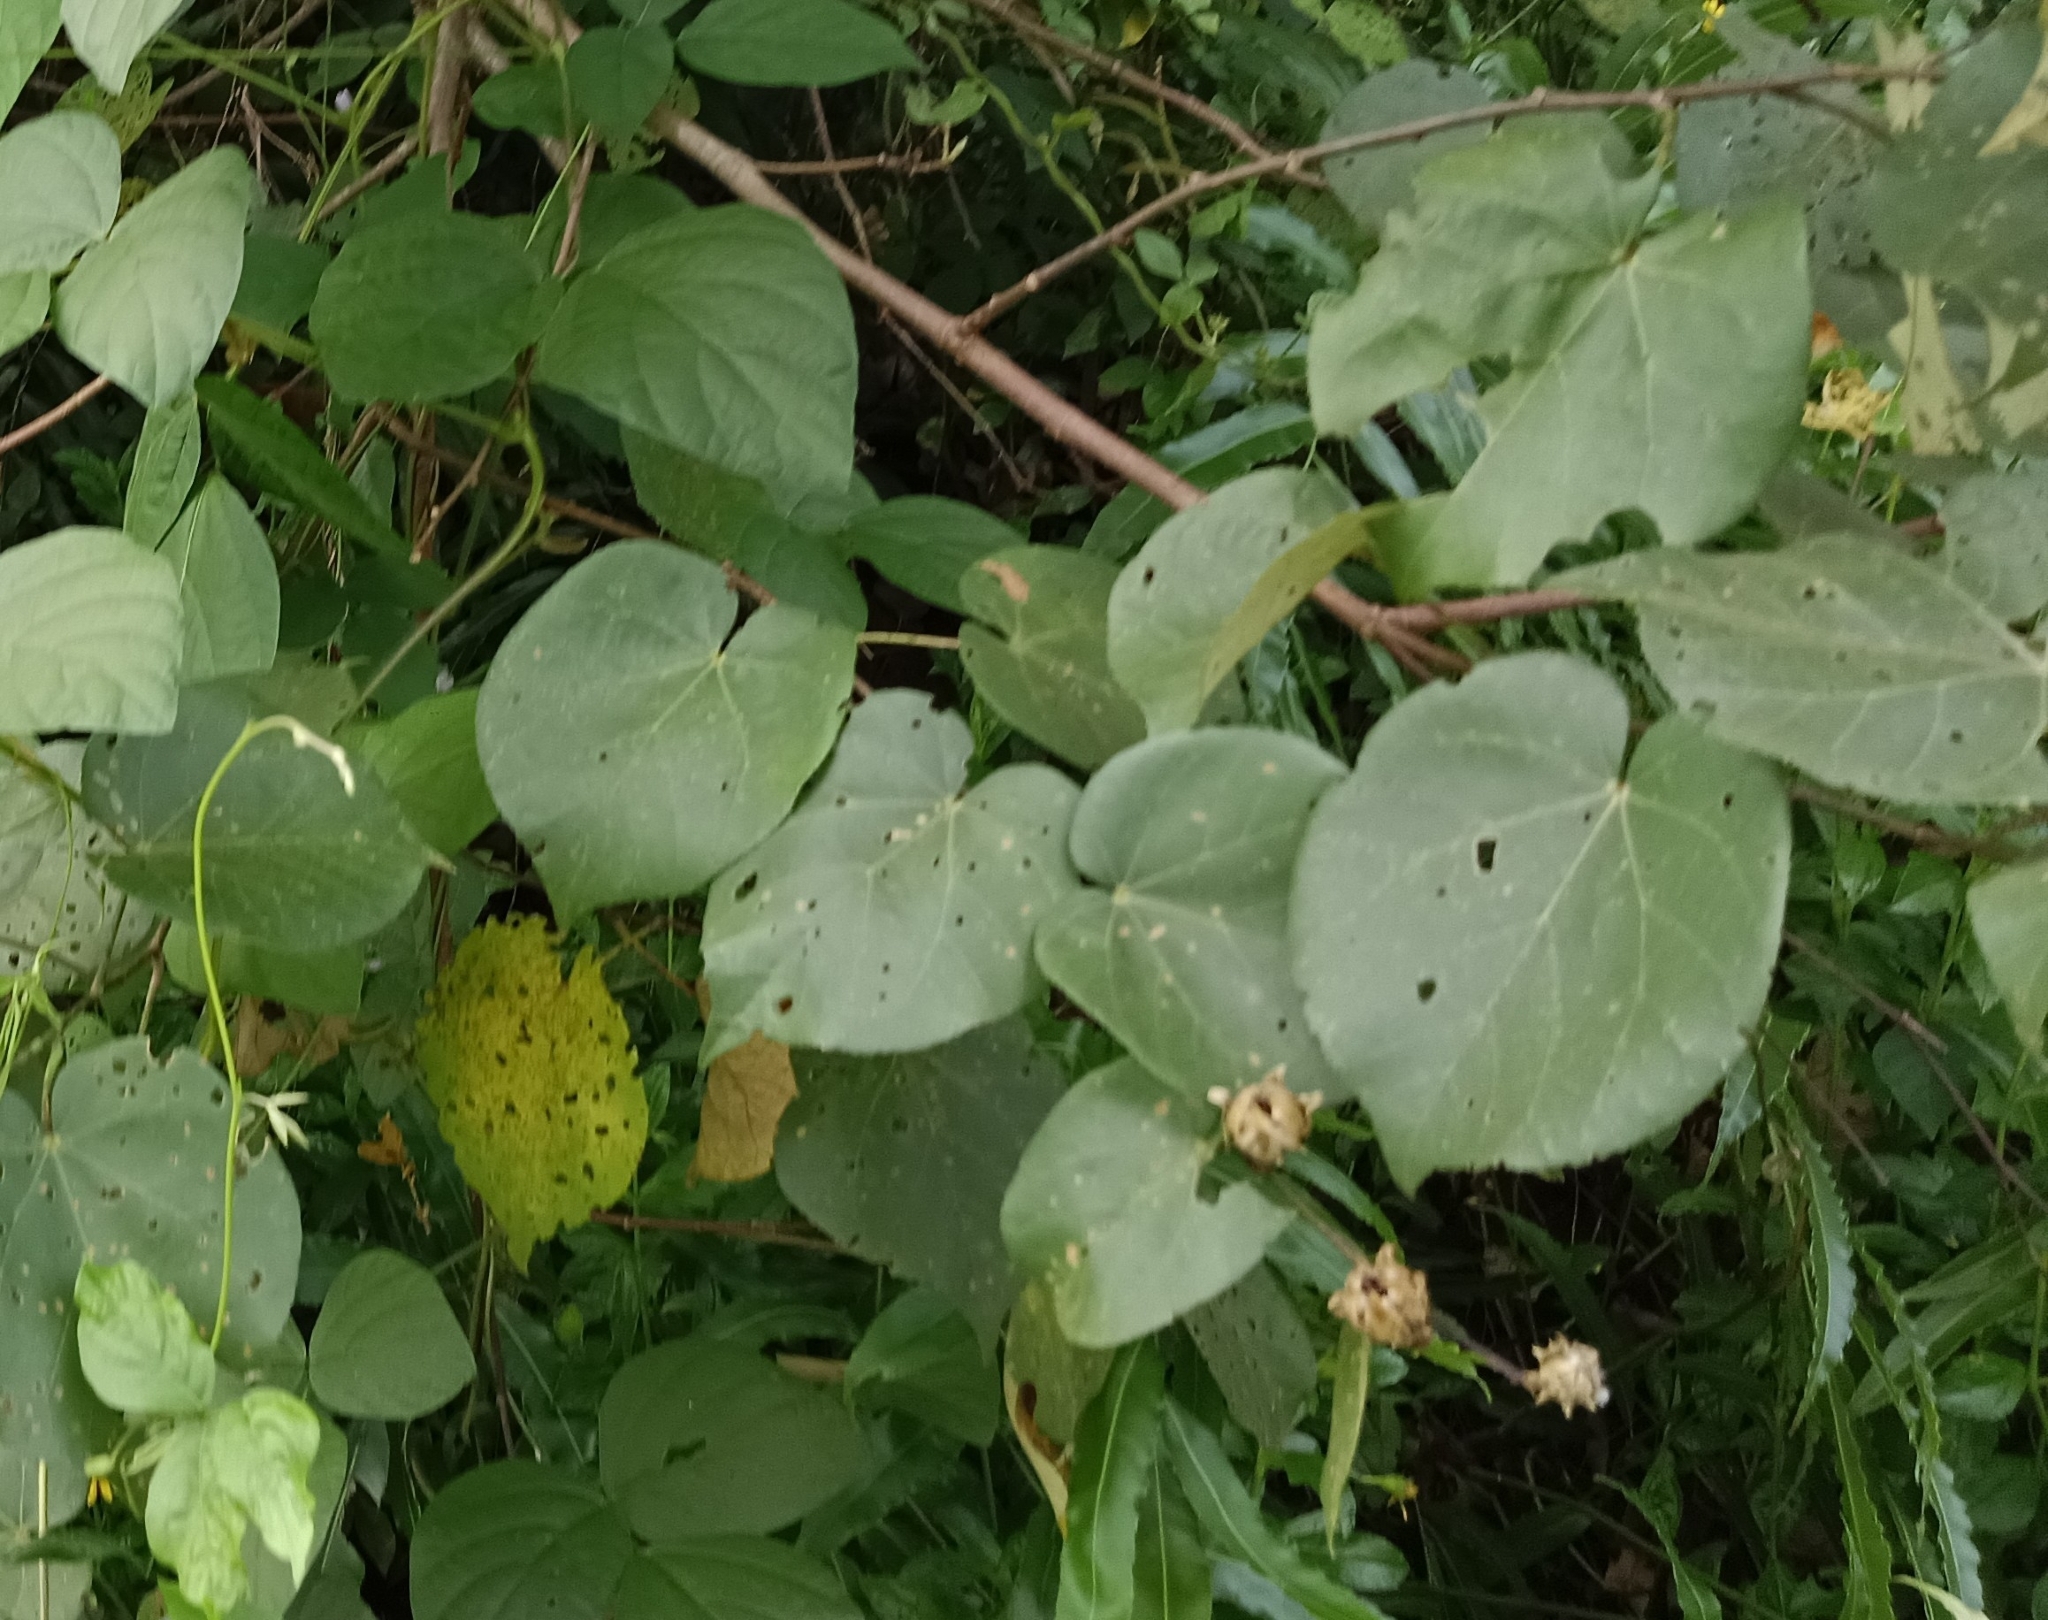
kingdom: Plantae
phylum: Tracheophyta
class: Magnoliopsida
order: Malvales
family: Malvaceae
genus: Talipariti
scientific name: Talipariti tiliaceum
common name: Sea hibiscus
